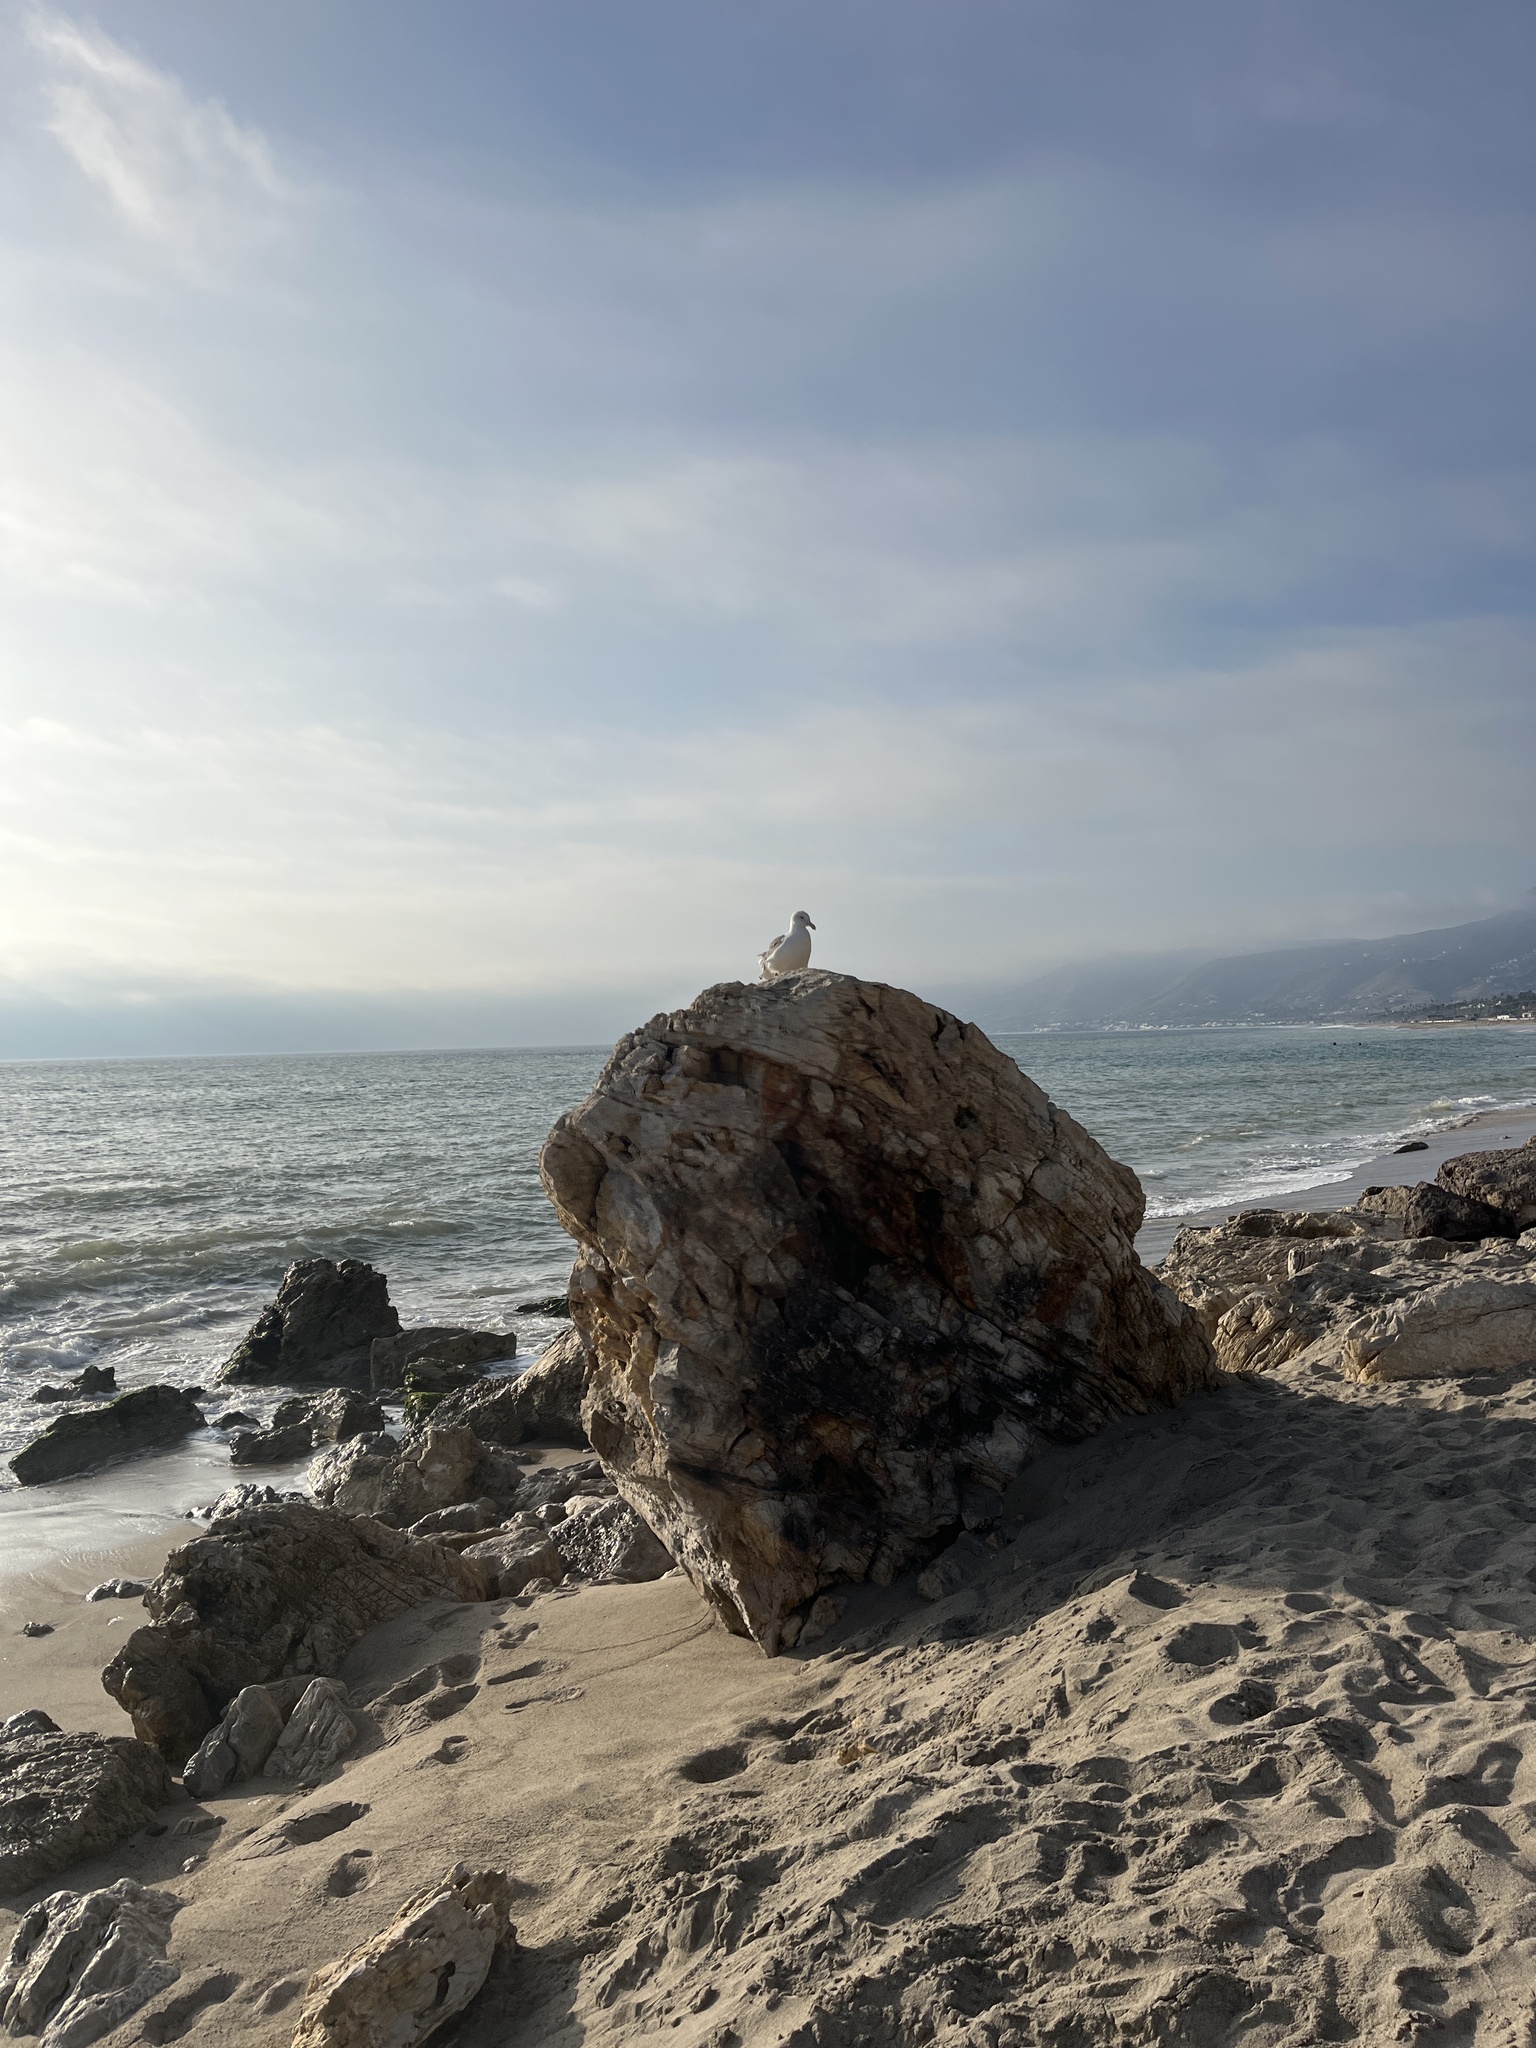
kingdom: Animalia
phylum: Chordata
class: Aves
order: Charadriiformes
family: Laridae
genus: Larus
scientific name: Larus occidentalis
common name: Western gull
